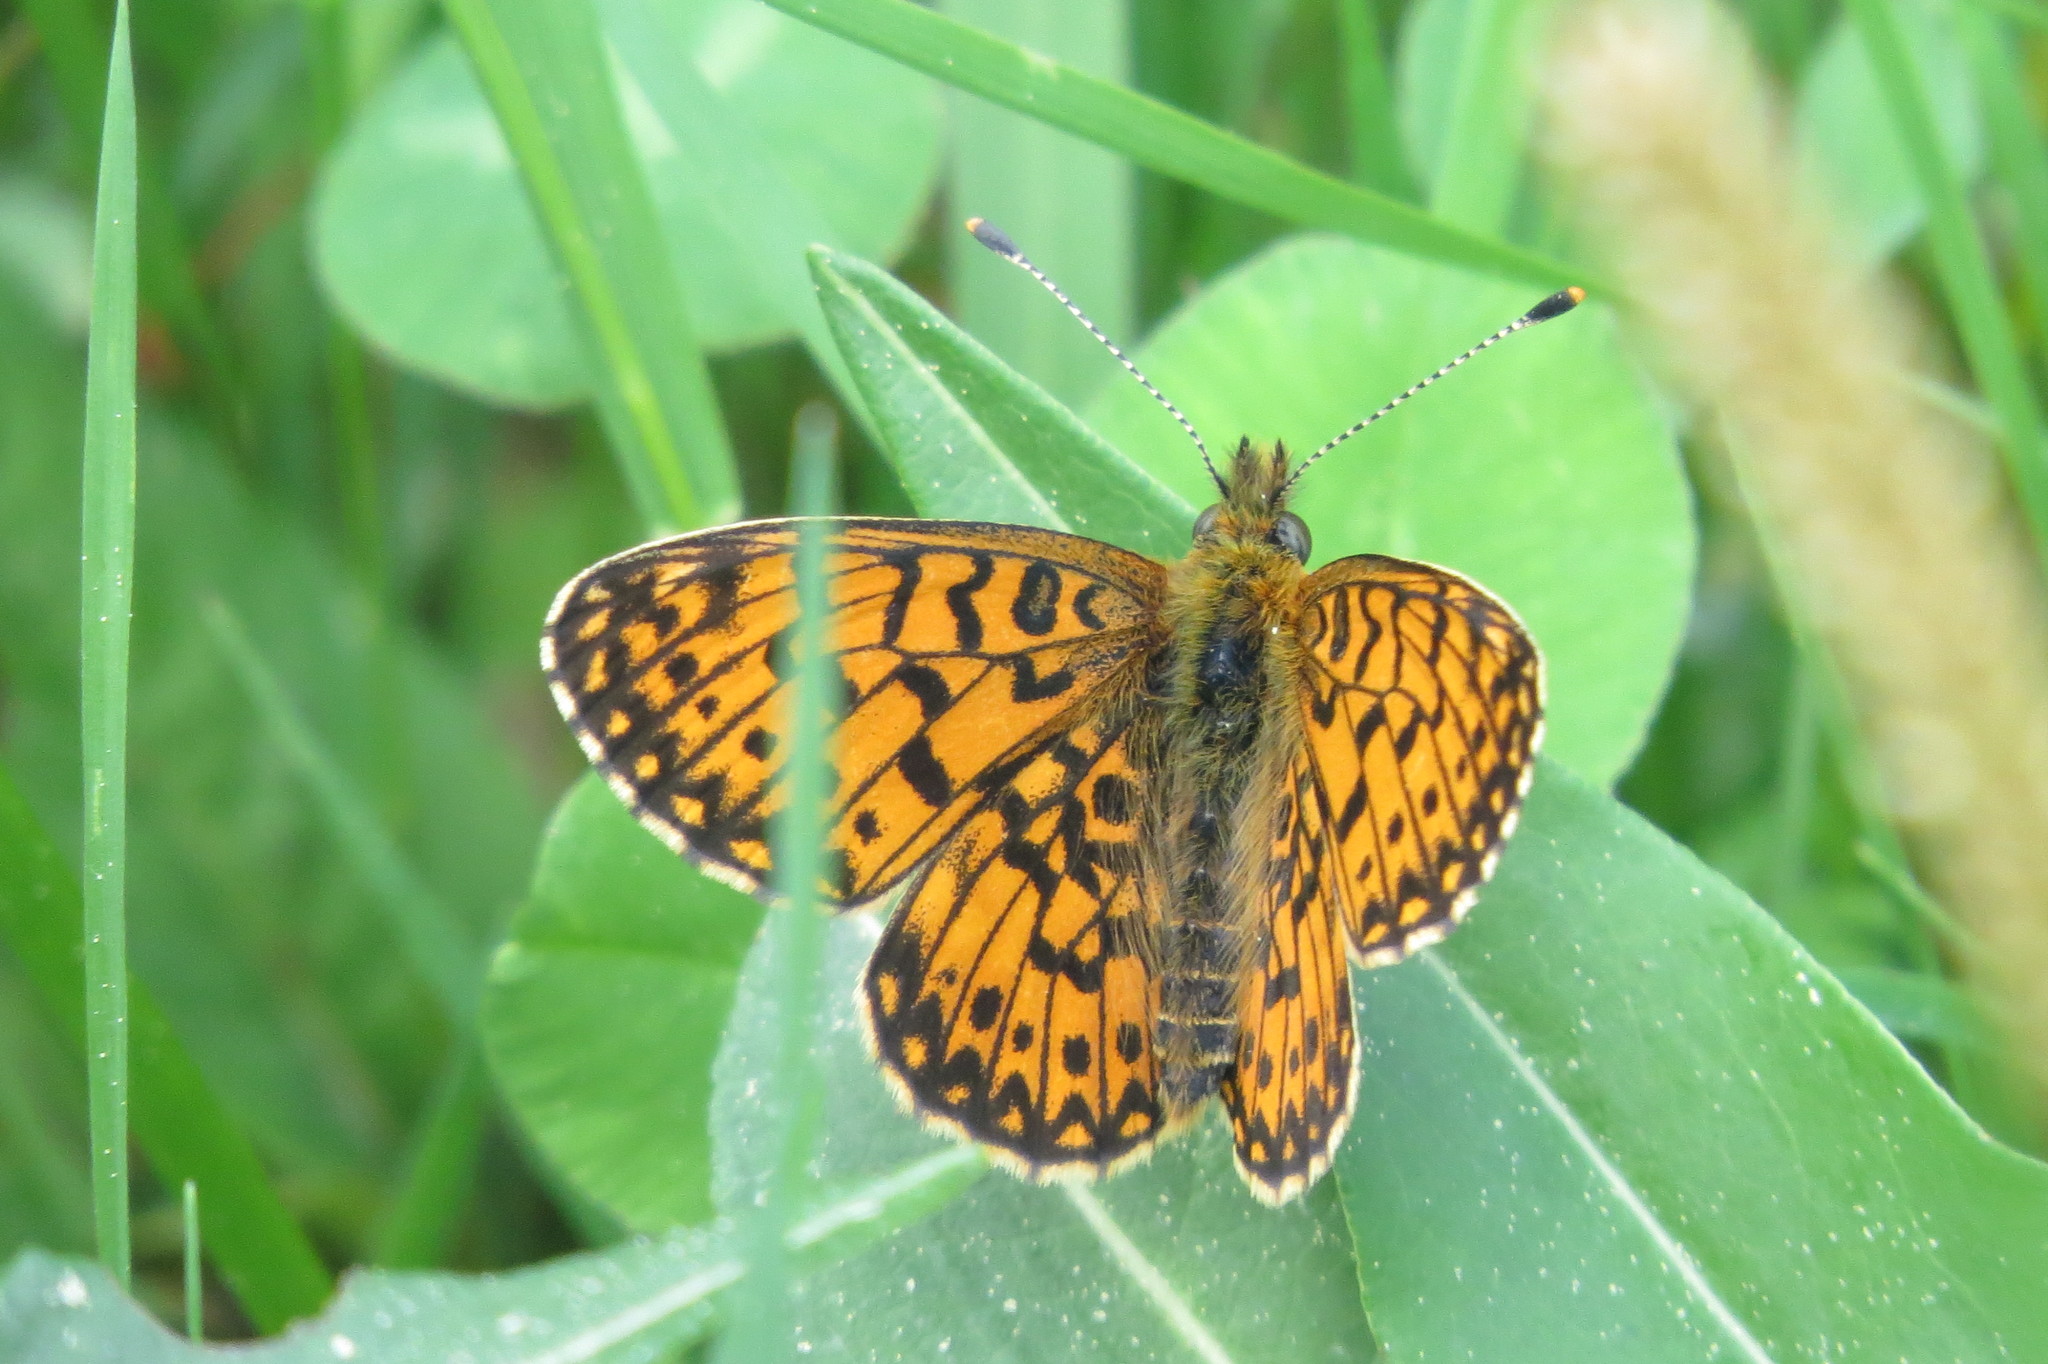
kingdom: Animalia
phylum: Arthropoda
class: Insecta
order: Lepidoptera
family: Nymphalidae
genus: Boloria
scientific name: Boloria selene
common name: Small pearl-bordered fritillary
